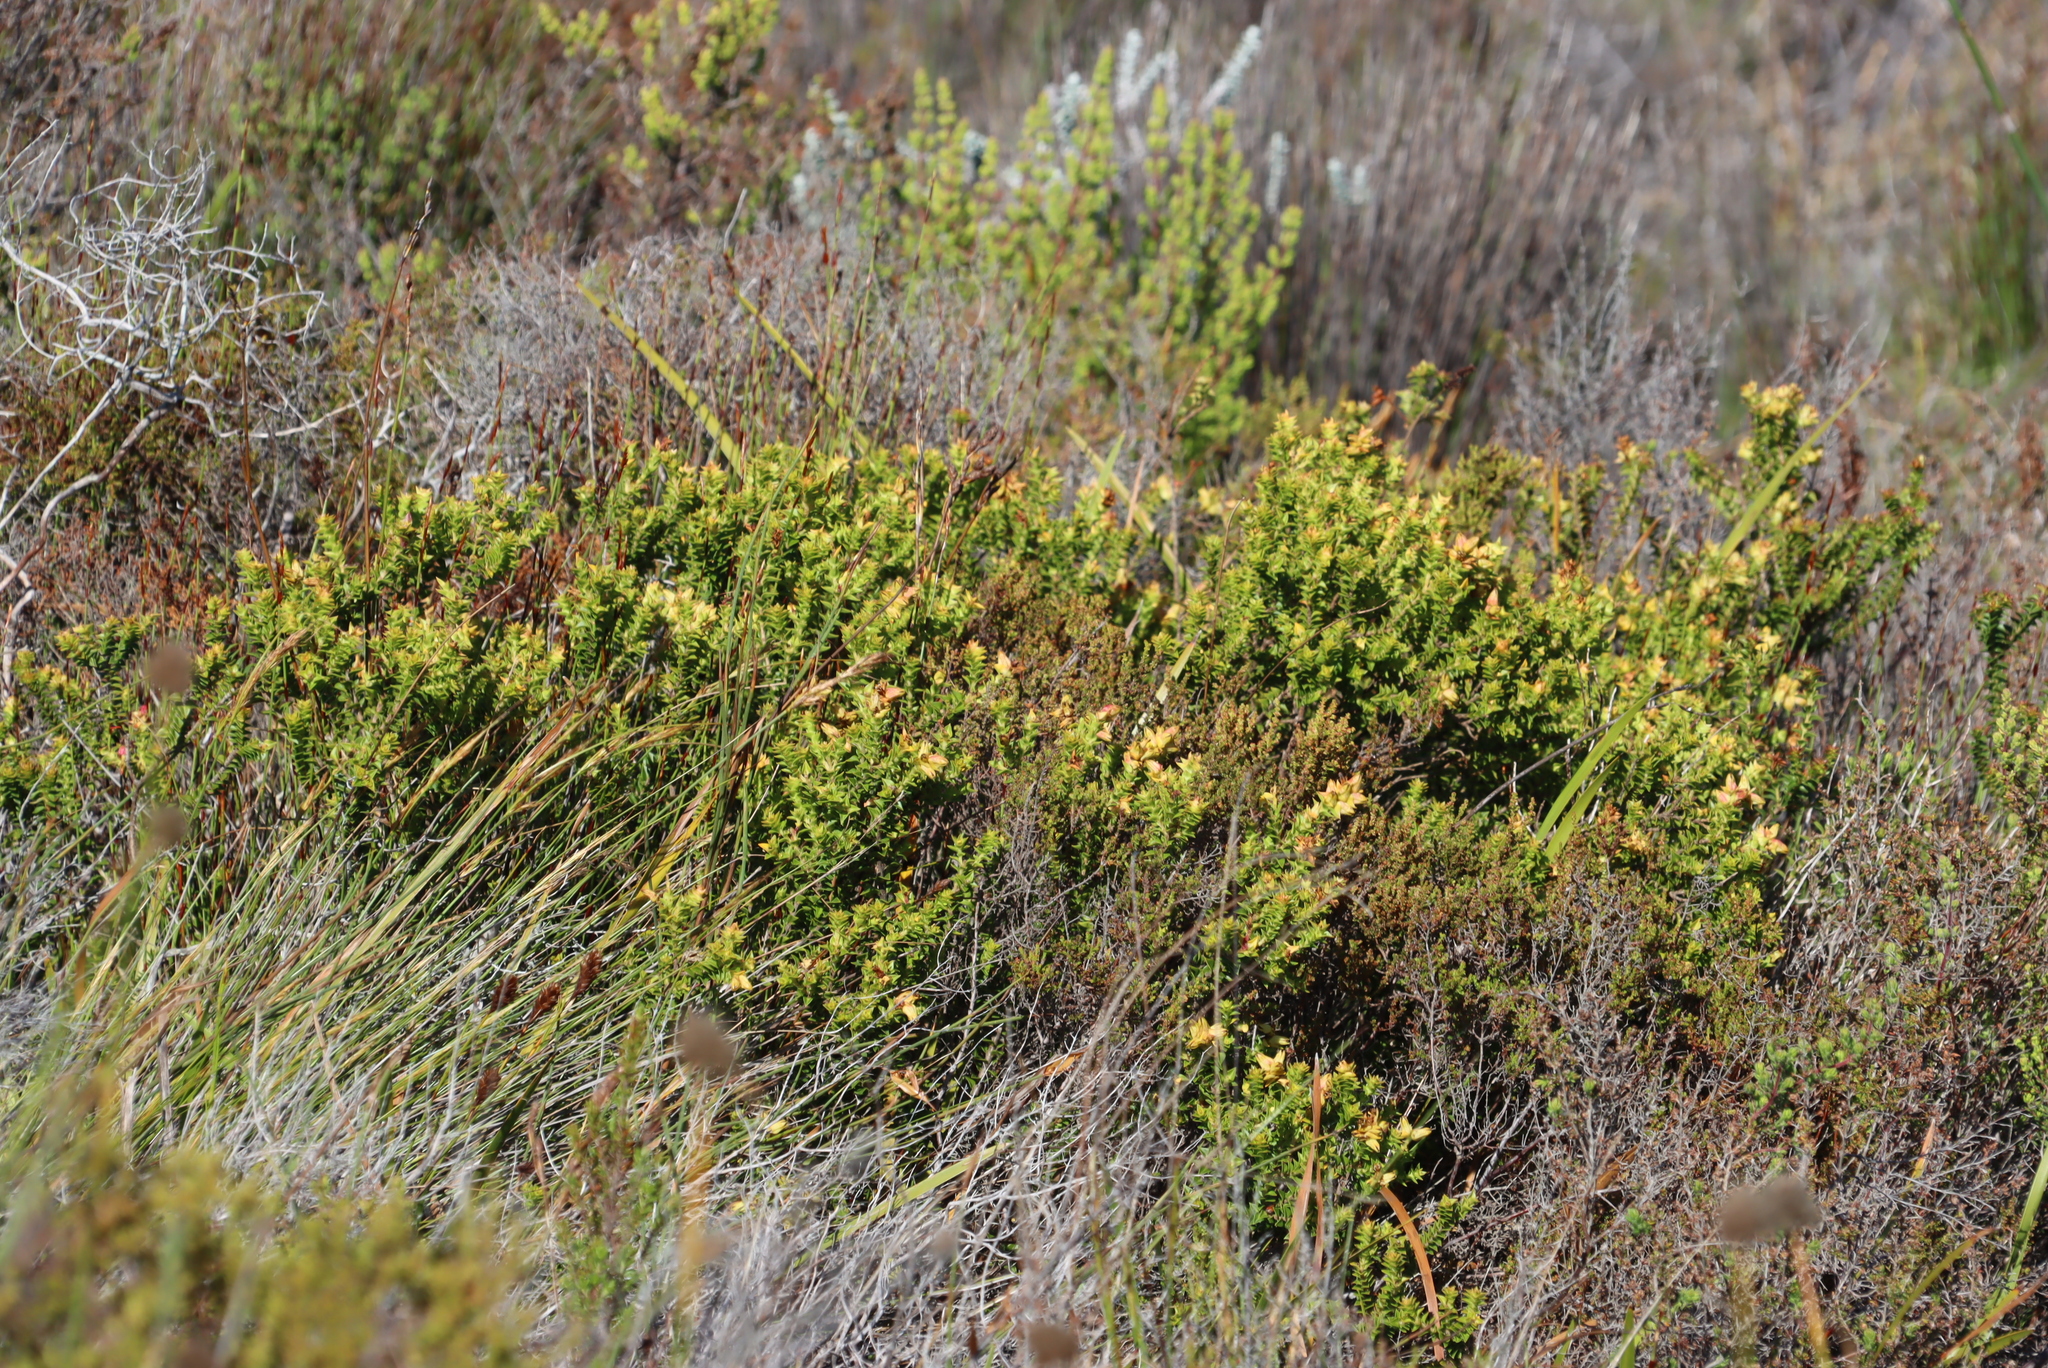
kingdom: Plantae
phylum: Tracheophyta
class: Magnoliopsida
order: Myrtales
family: Penaeaceae
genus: Penaea
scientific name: Penaea mucronata
